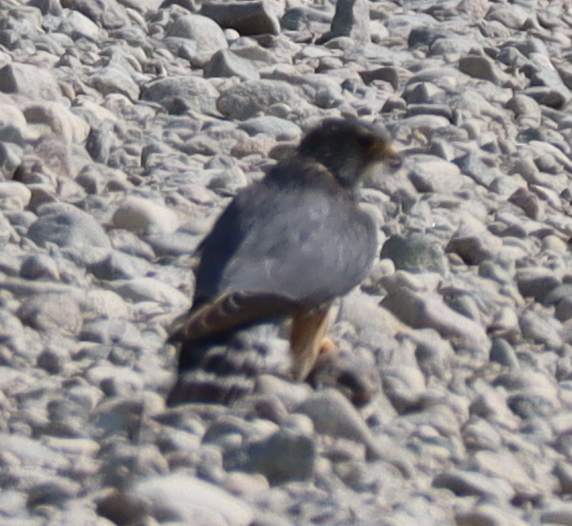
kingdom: Animalia
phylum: Chordata
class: Aves
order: Falconiformes
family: Falconidae
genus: Falco
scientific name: Falco columbarius
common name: Merlin
